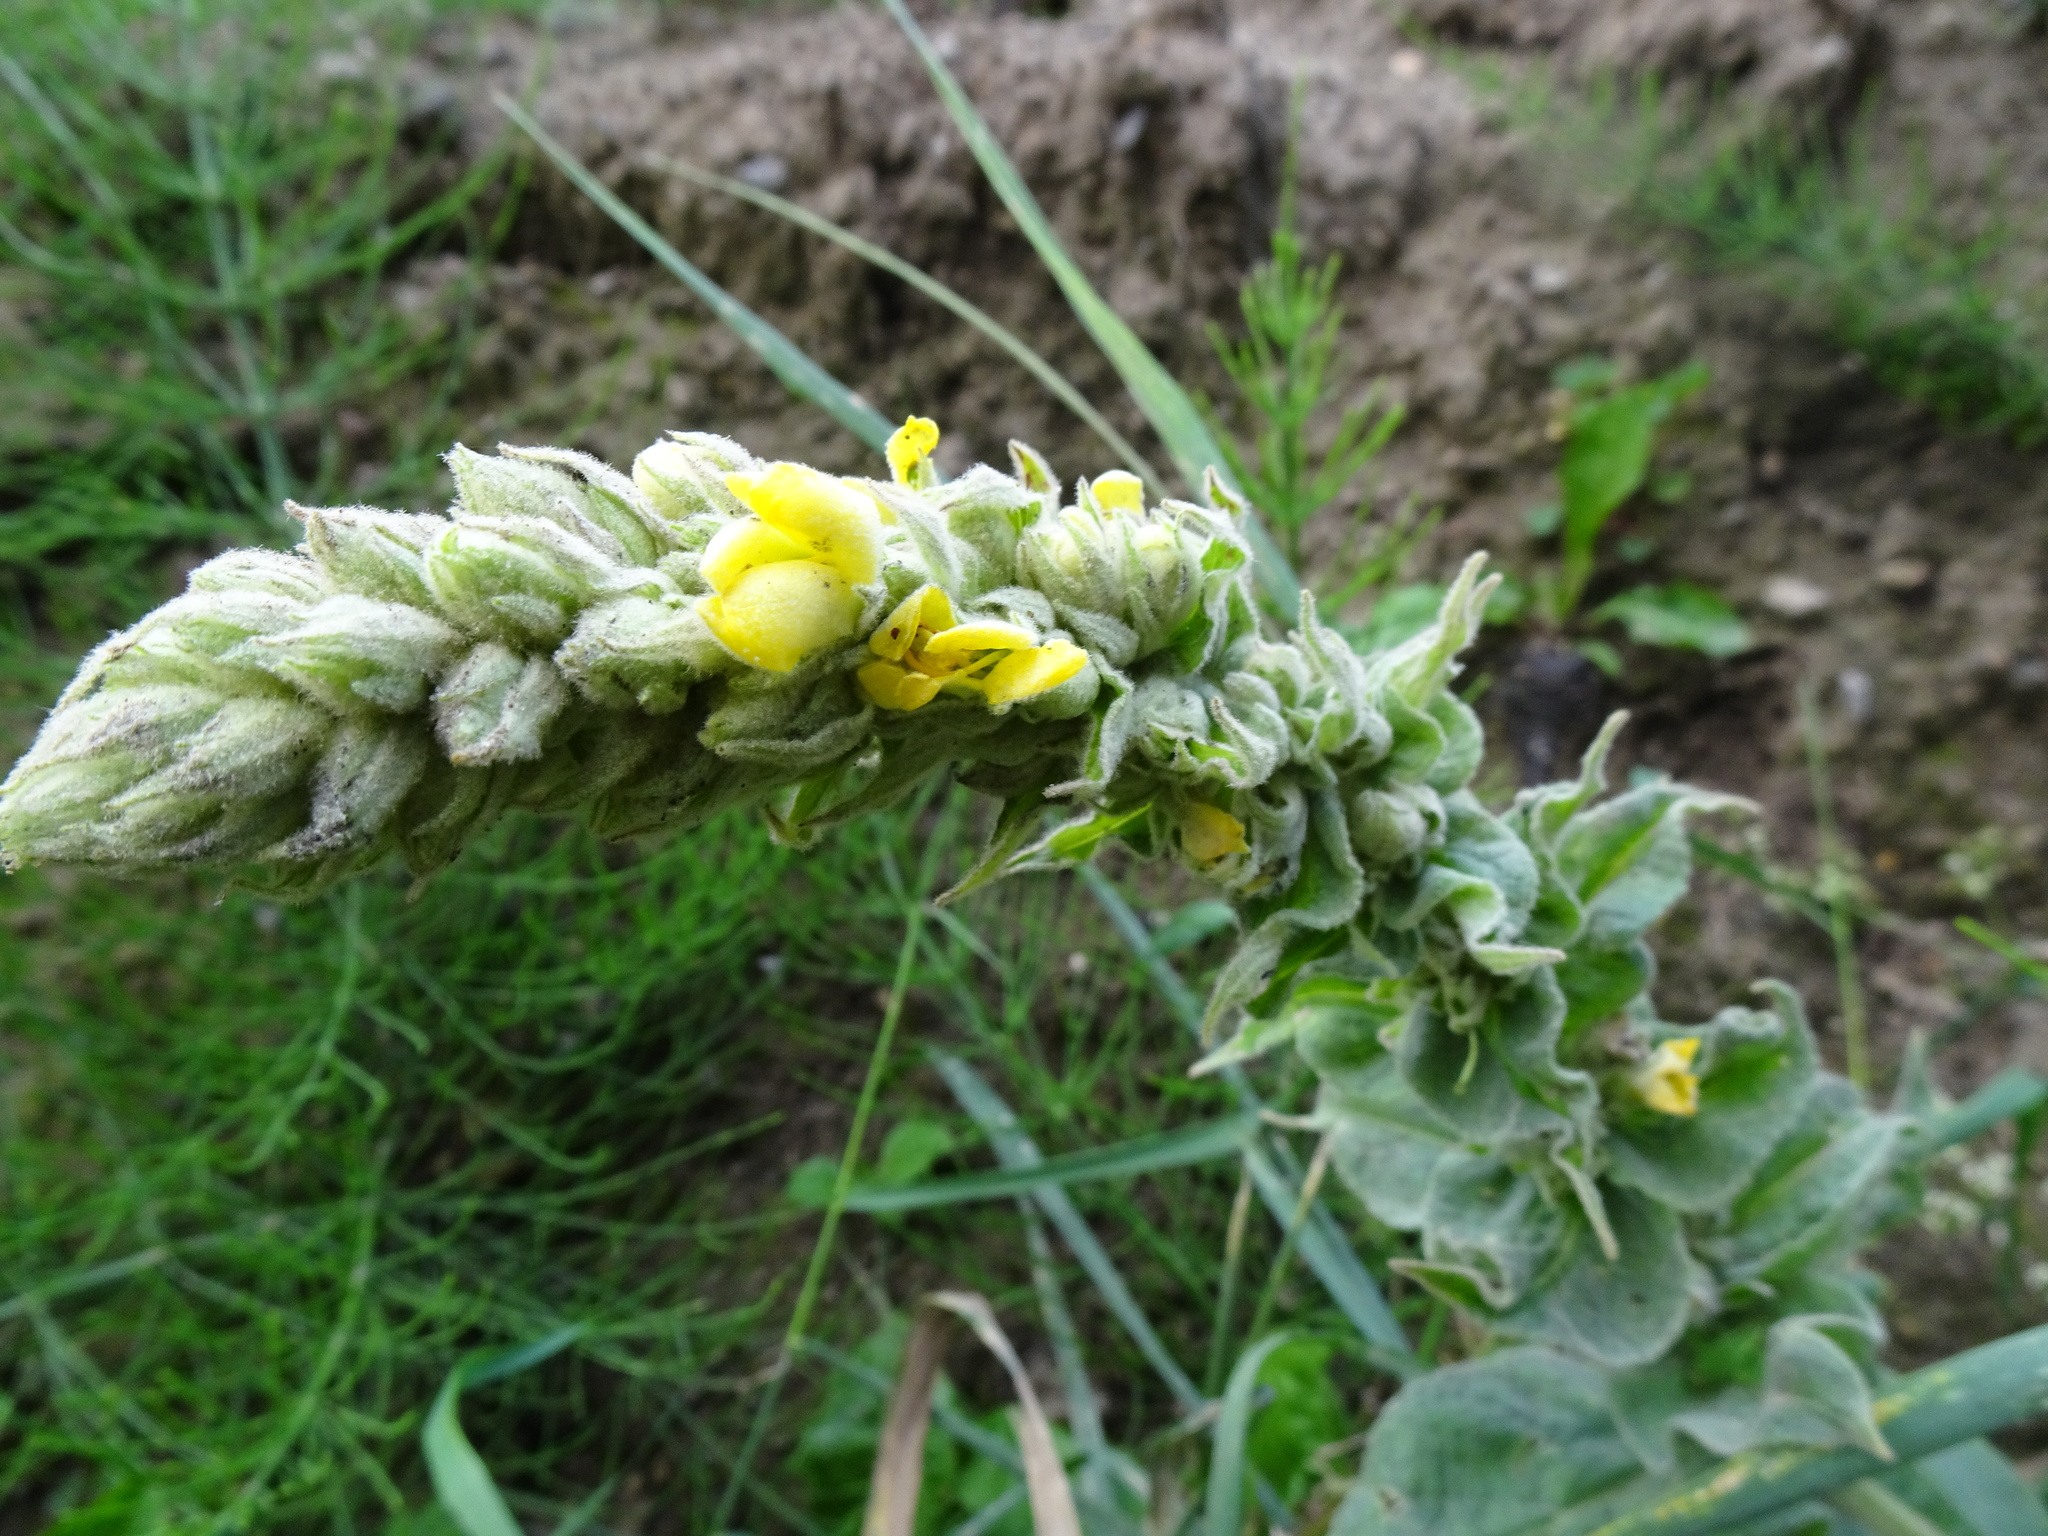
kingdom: Plantae
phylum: Tracheophyta
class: Magnoliopsida
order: Lamiales
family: Scrophulariaceae
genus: Verbascum
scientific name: Verbascum thapsus
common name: Common mullein
